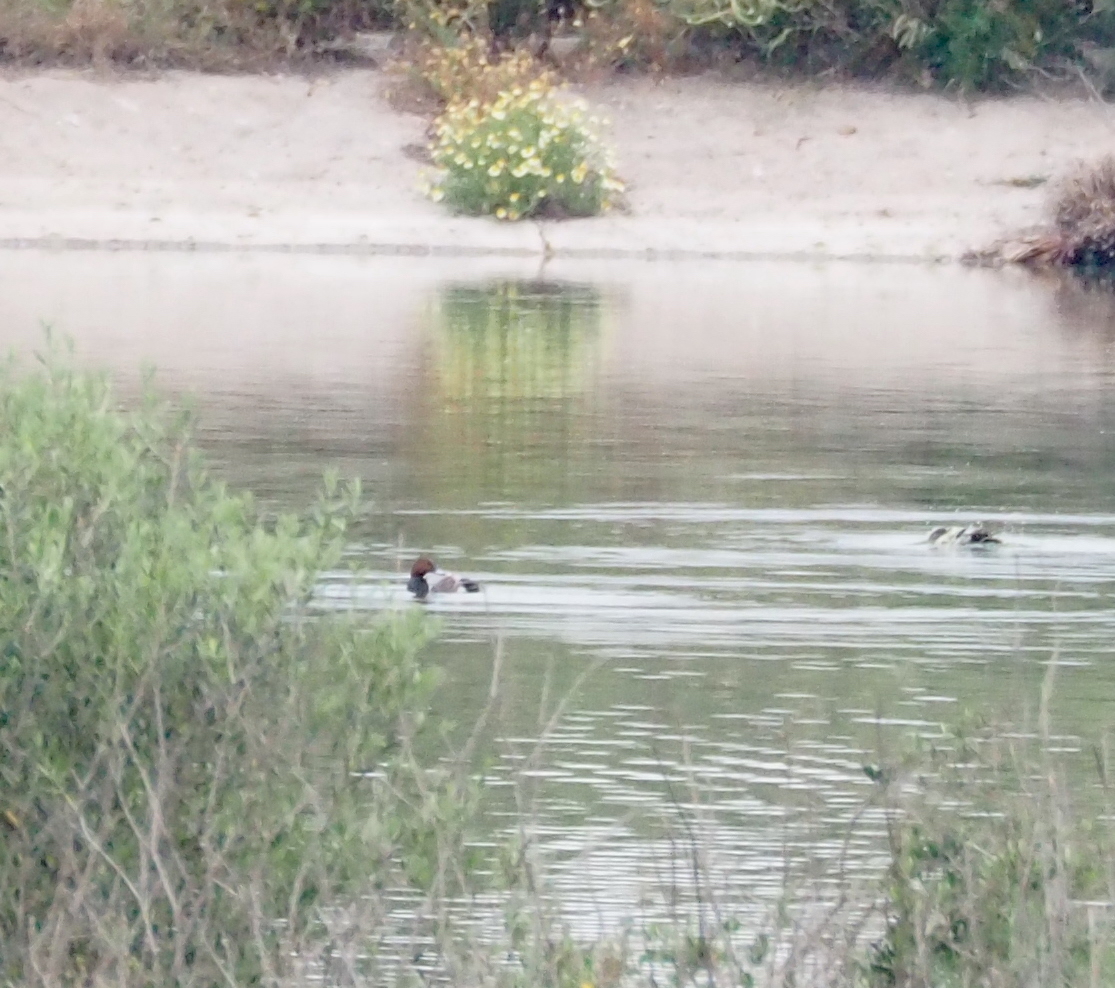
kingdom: Animalia
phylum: Chordata
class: Aves
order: Anseriformes
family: Anatidae
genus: Aythya
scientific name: Aythya ferina
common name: Common pochard
